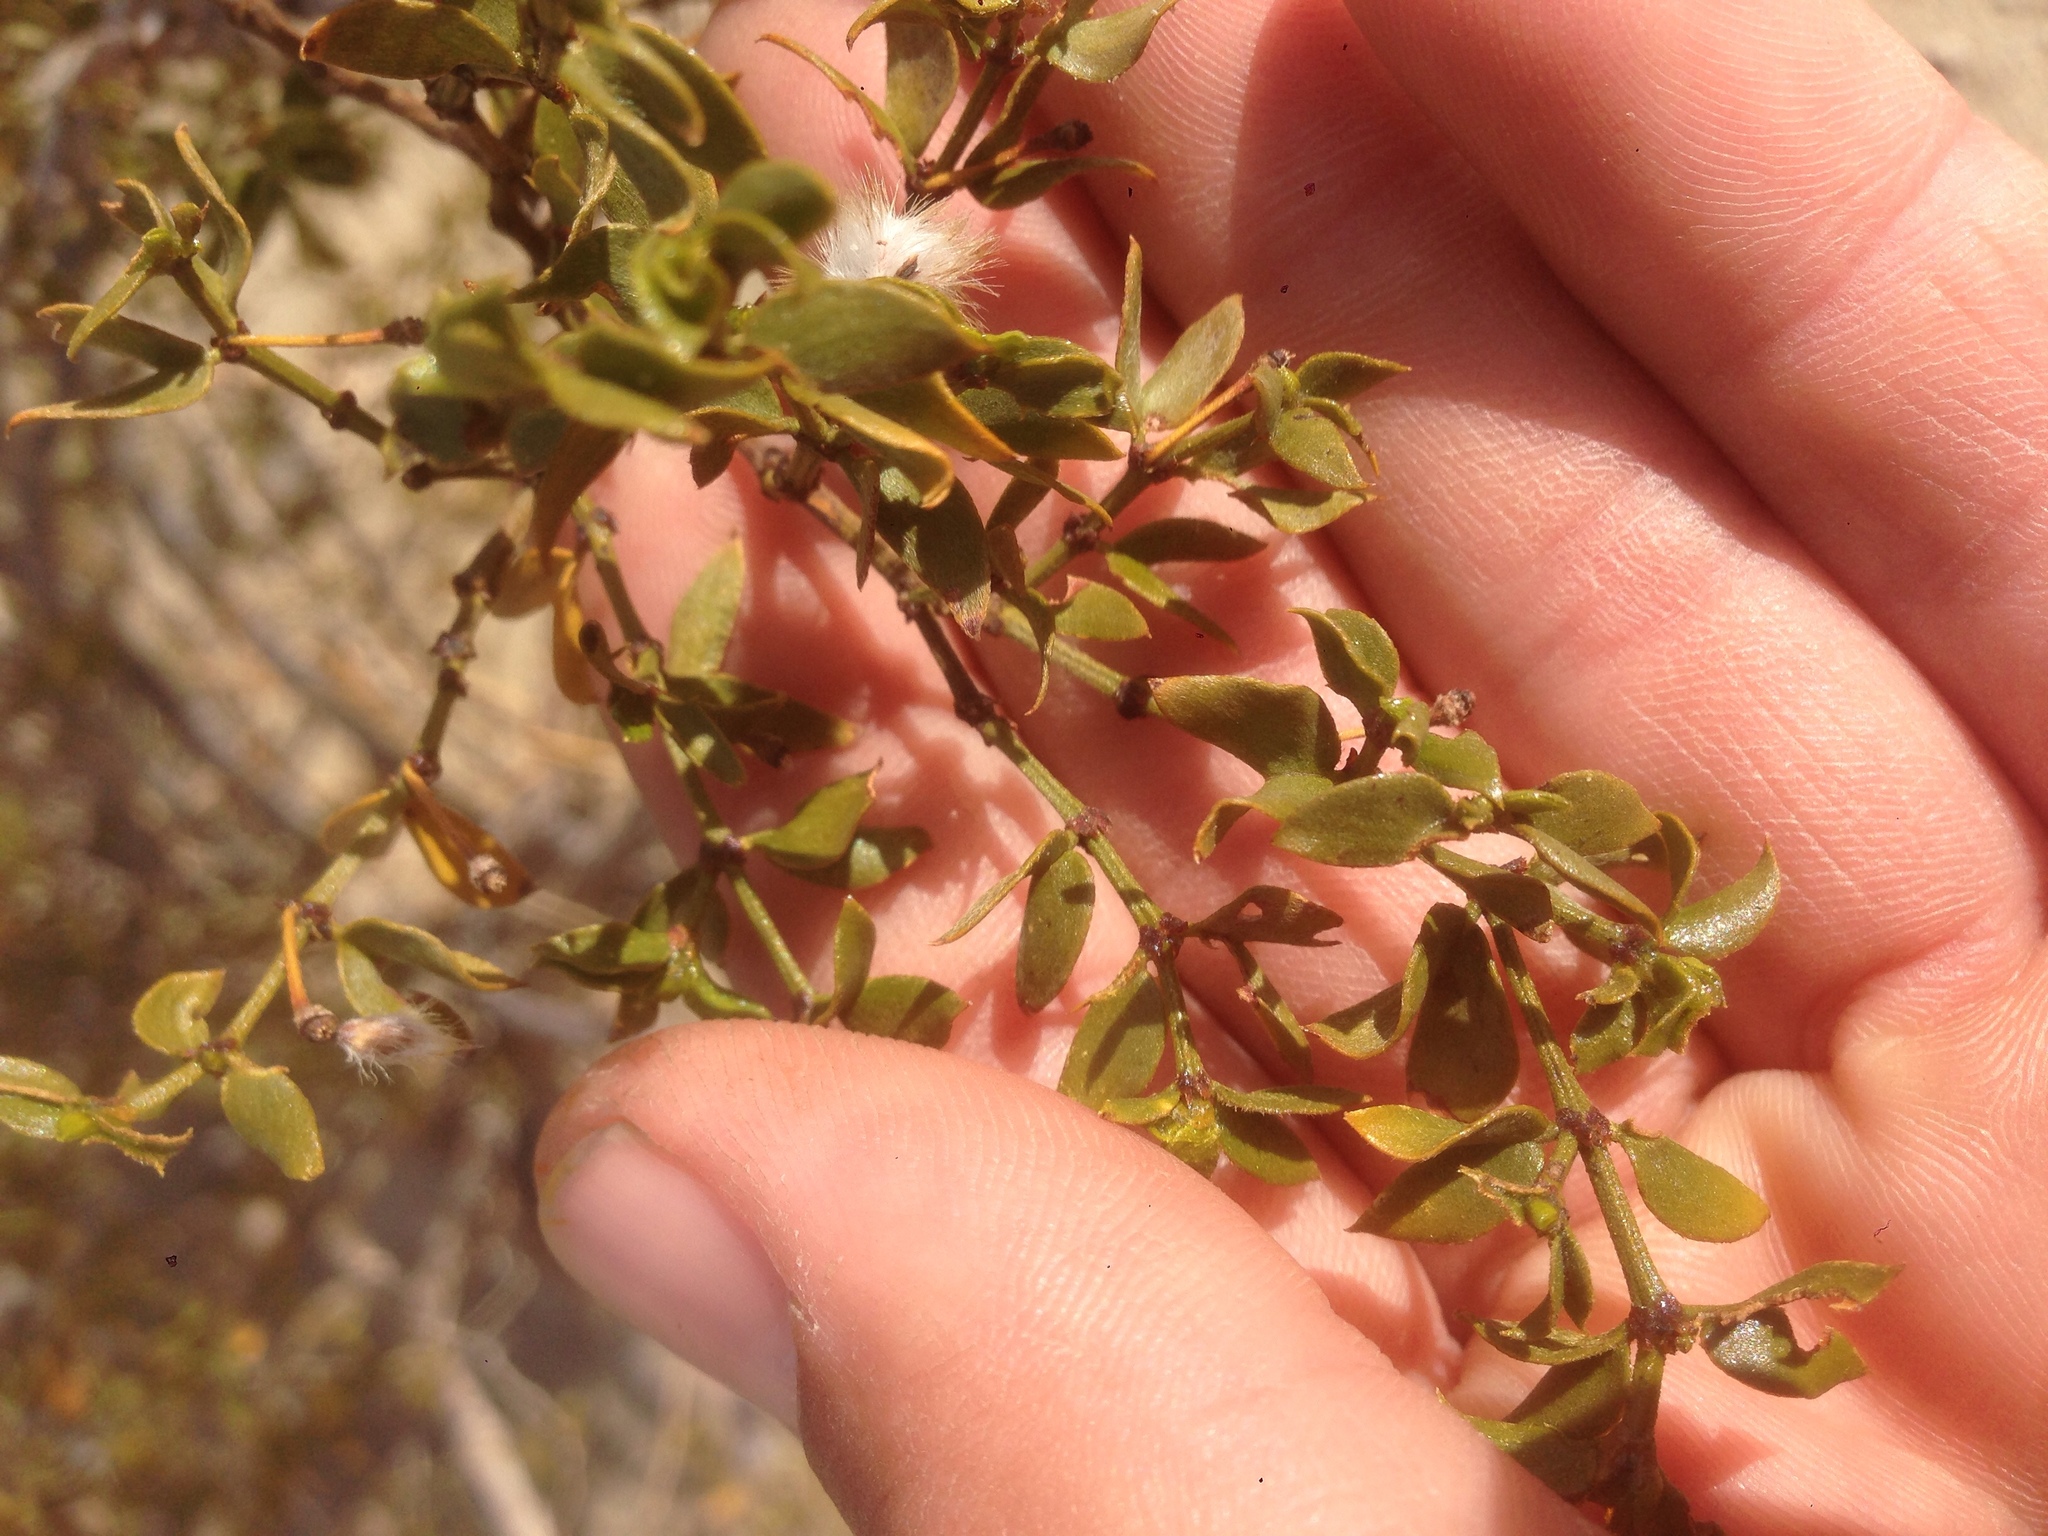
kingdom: Plantae
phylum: Tracheophyta
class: Magnoliopsida
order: Zygophyllales
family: Zygophyllaceae
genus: Larrea
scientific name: Larrea tridentata
